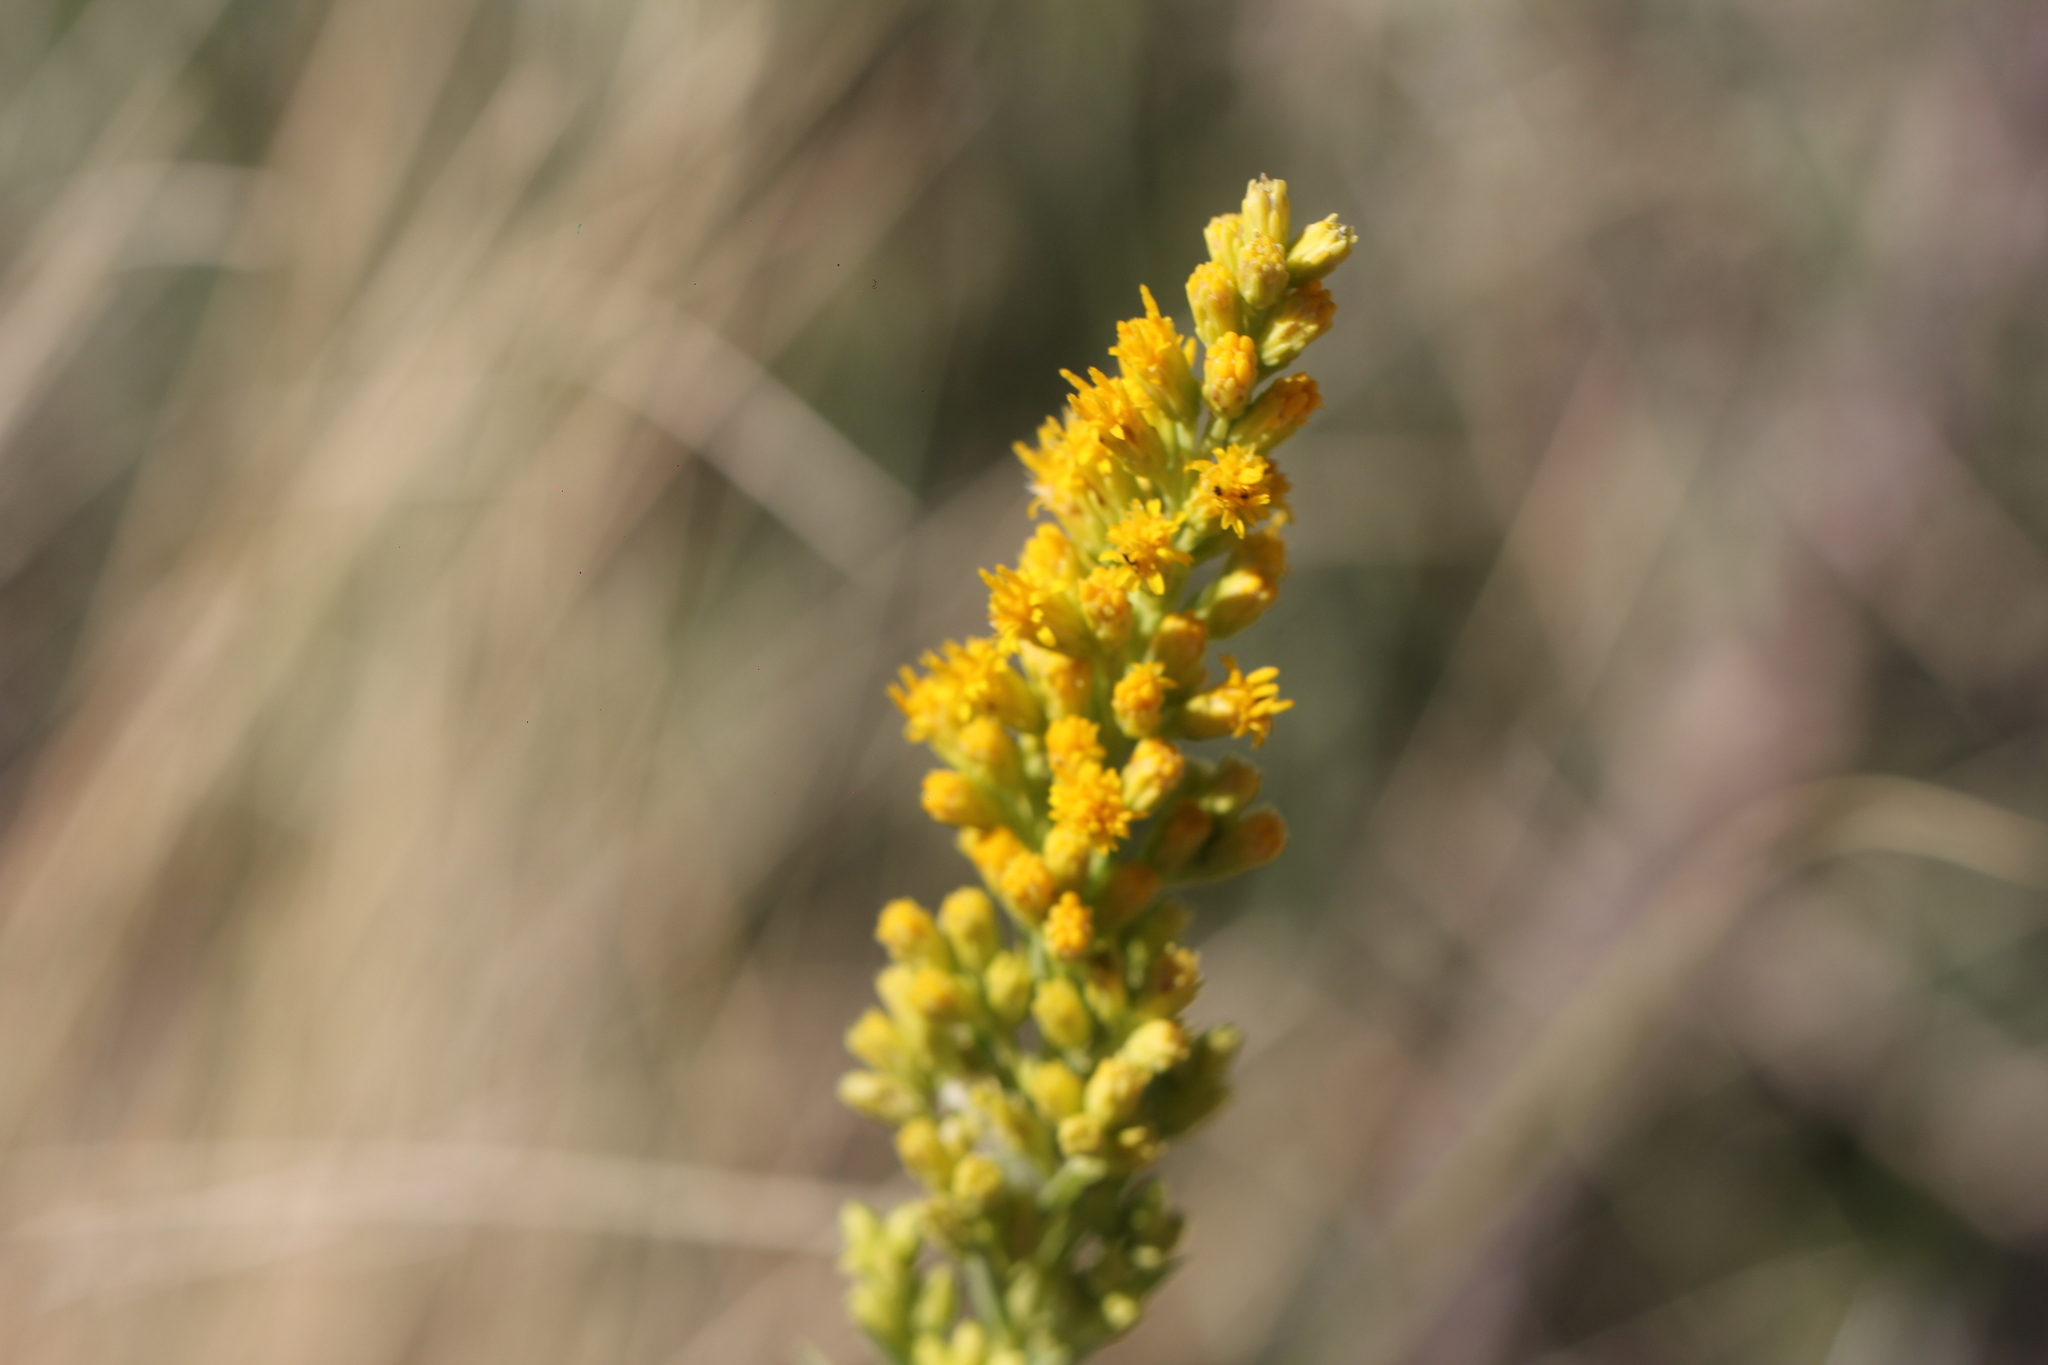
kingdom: Plantae
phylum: Tracheophyta
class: Magnoliopsida
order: Asterales
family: Asteraceae
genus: Solidago
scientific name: Solidago chilensis
